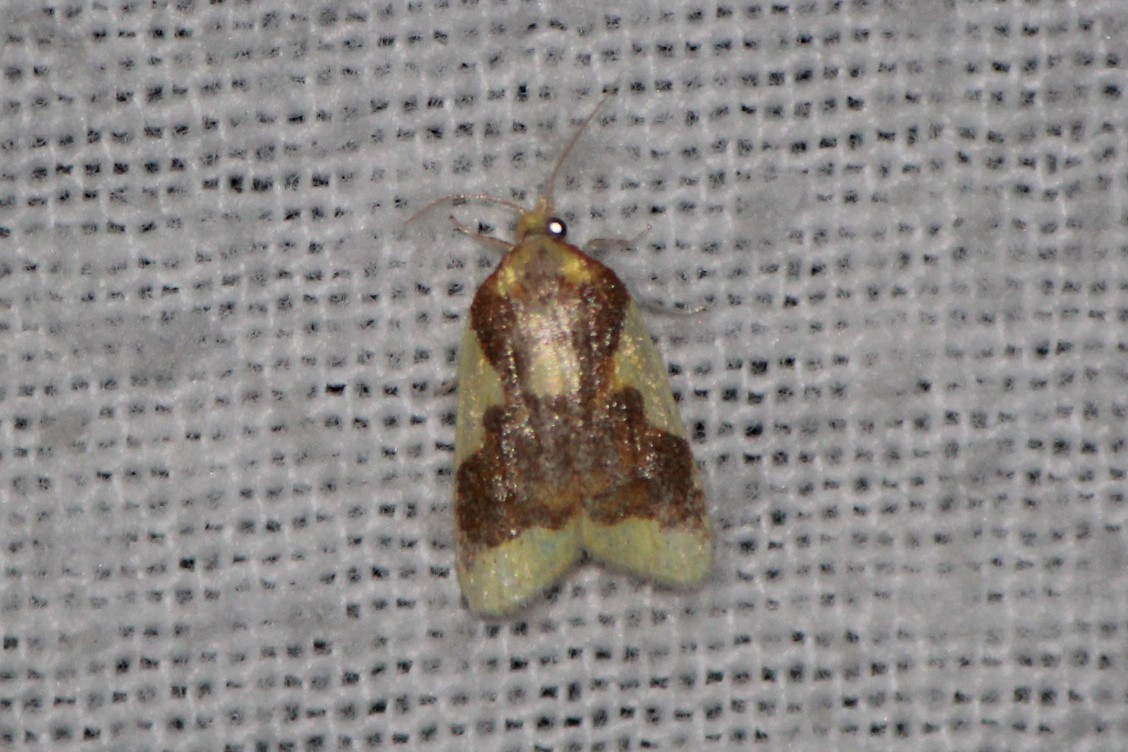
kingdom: Animalia
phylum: Arthropoda
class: Insecta
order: Lepidoptera
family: Tortricidae
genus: Sparganothis
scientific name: Sparganothis pulcherrimana
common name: Beautiful sparganothis
